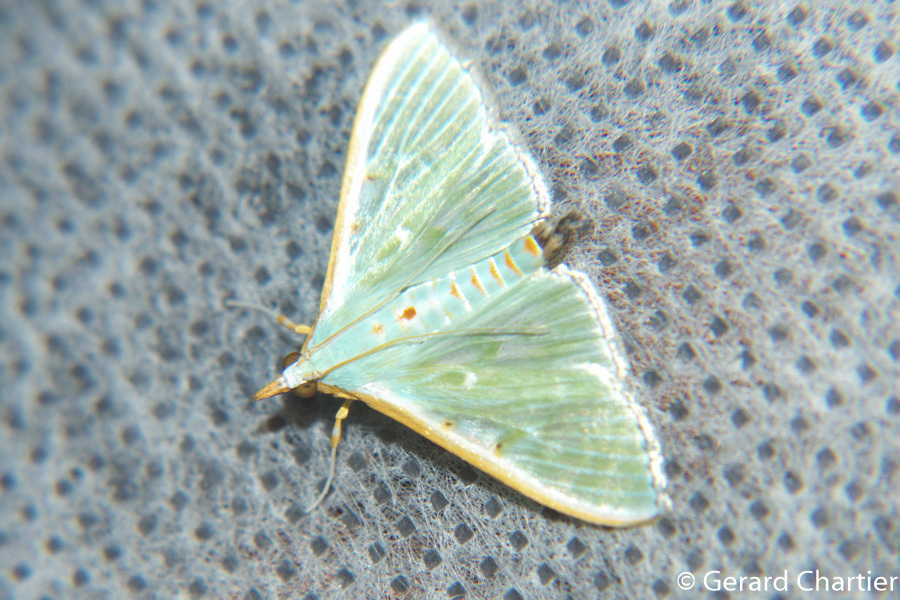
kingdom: Animalia
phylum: Arthropoda
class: Insecta
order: Lepidoptera
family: Crambidae
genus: Arthroschista
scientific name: Arthroschista hilaralis
